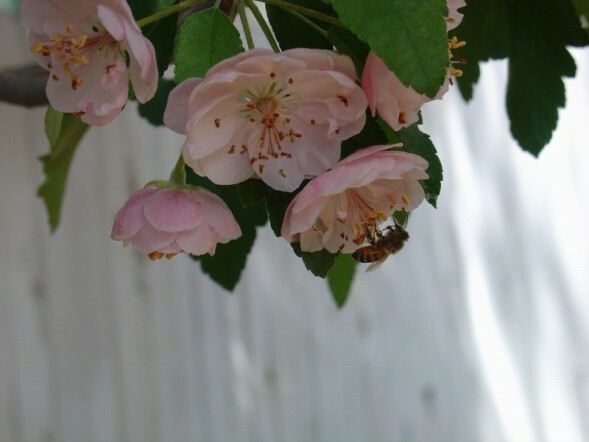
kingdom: Animalia
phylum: Arthropoda
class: Insecta
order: Hymenoptera
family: Apidae
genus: Apis
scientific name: Apis mellifera
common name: Honey bee
